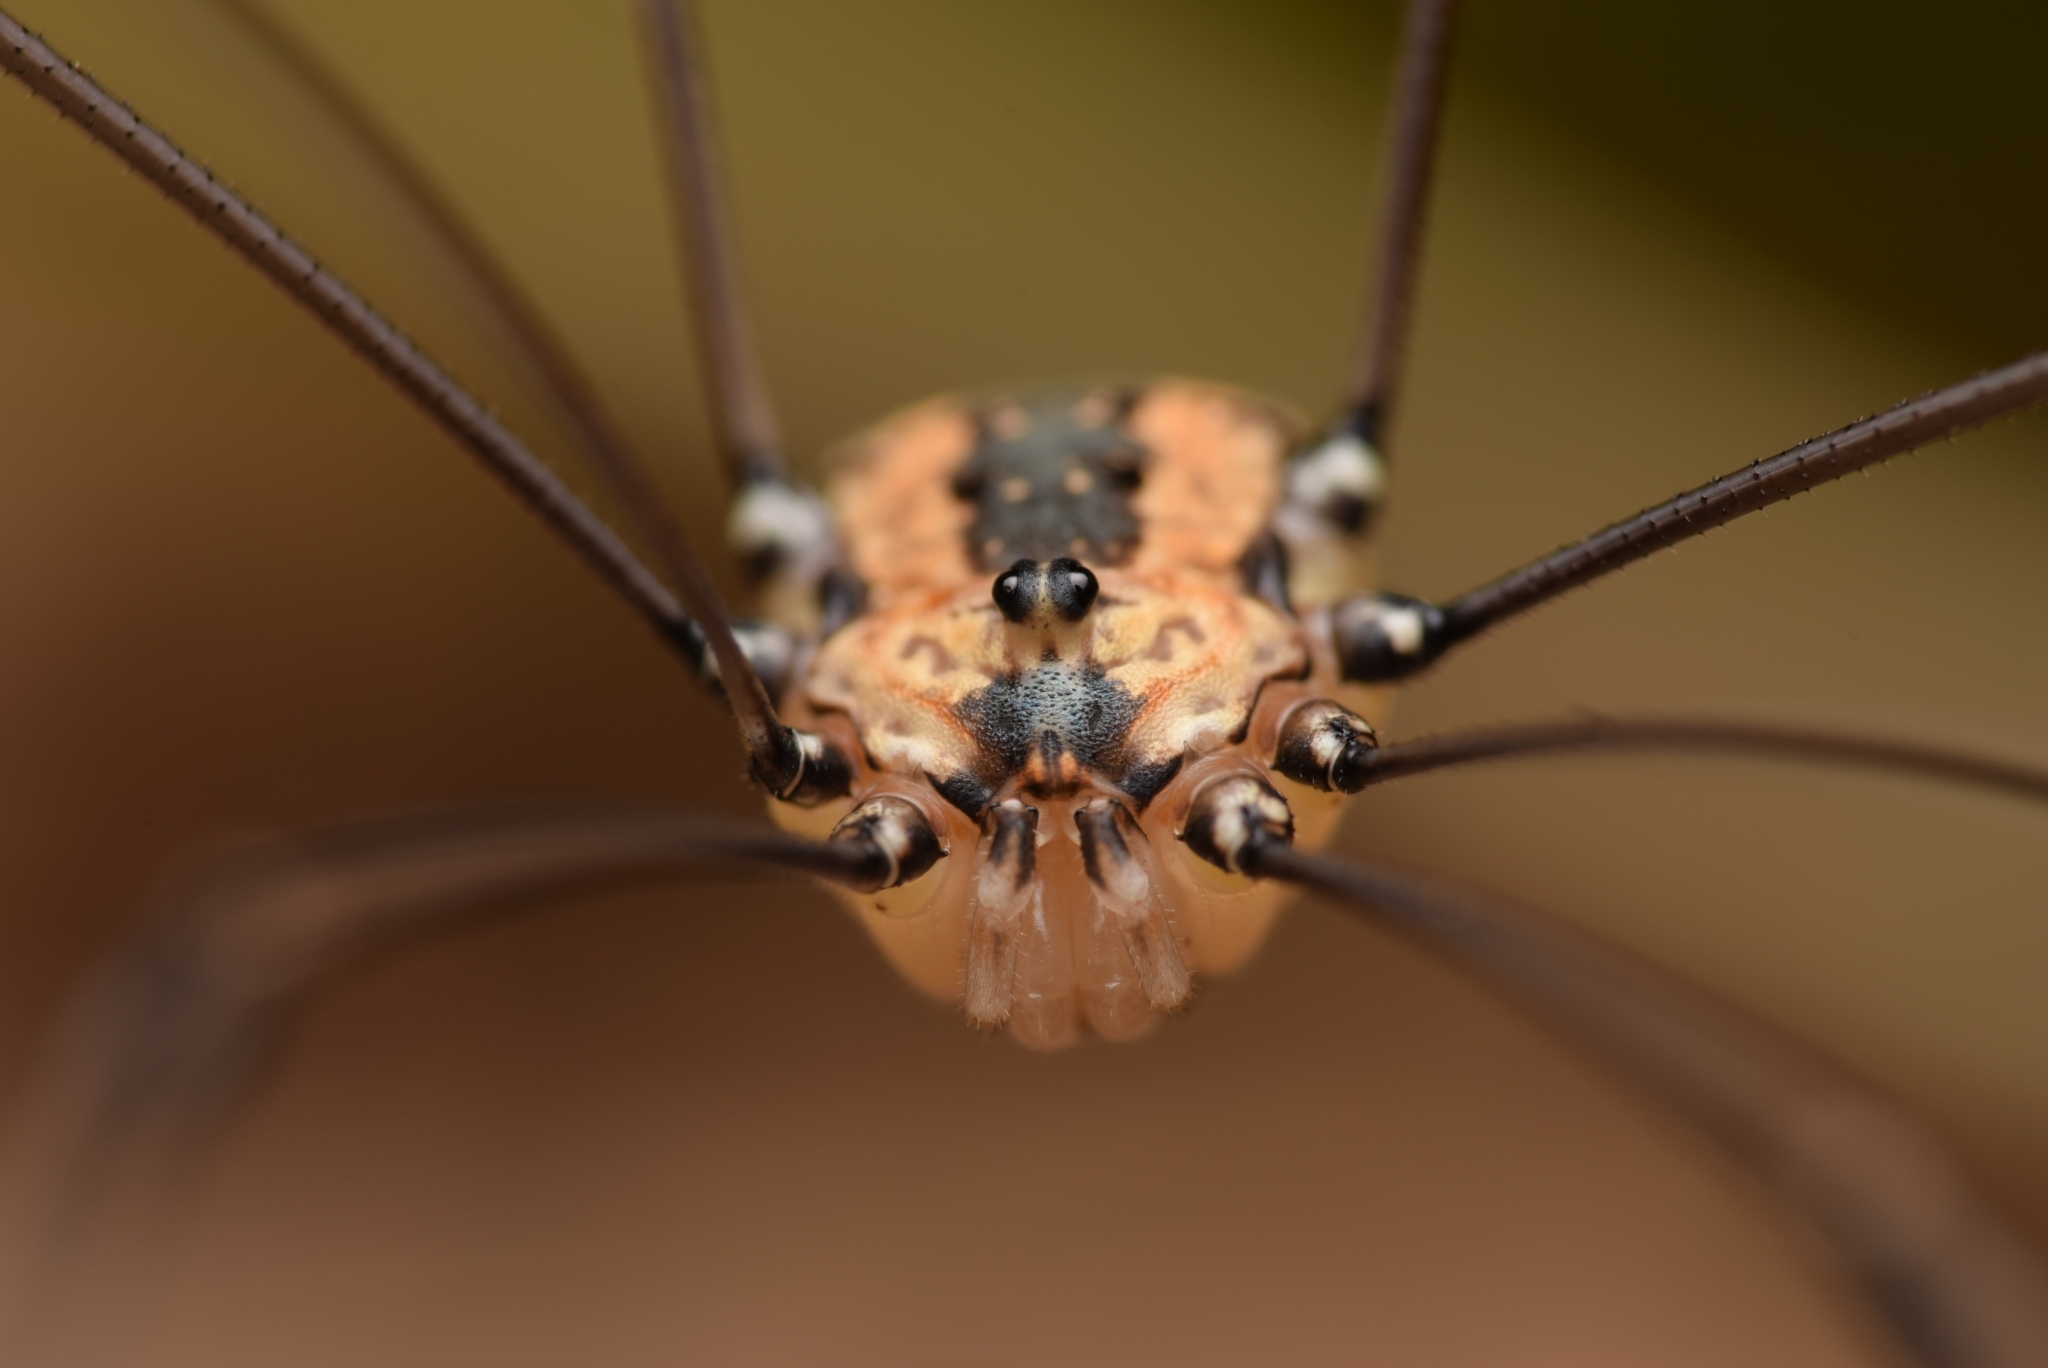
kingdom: Animalia
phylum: Arthropoda
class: Arachnida
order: Opiliones
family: Sclerosomatidae
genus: Leiobunum
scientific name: Leiobunum rotundum
